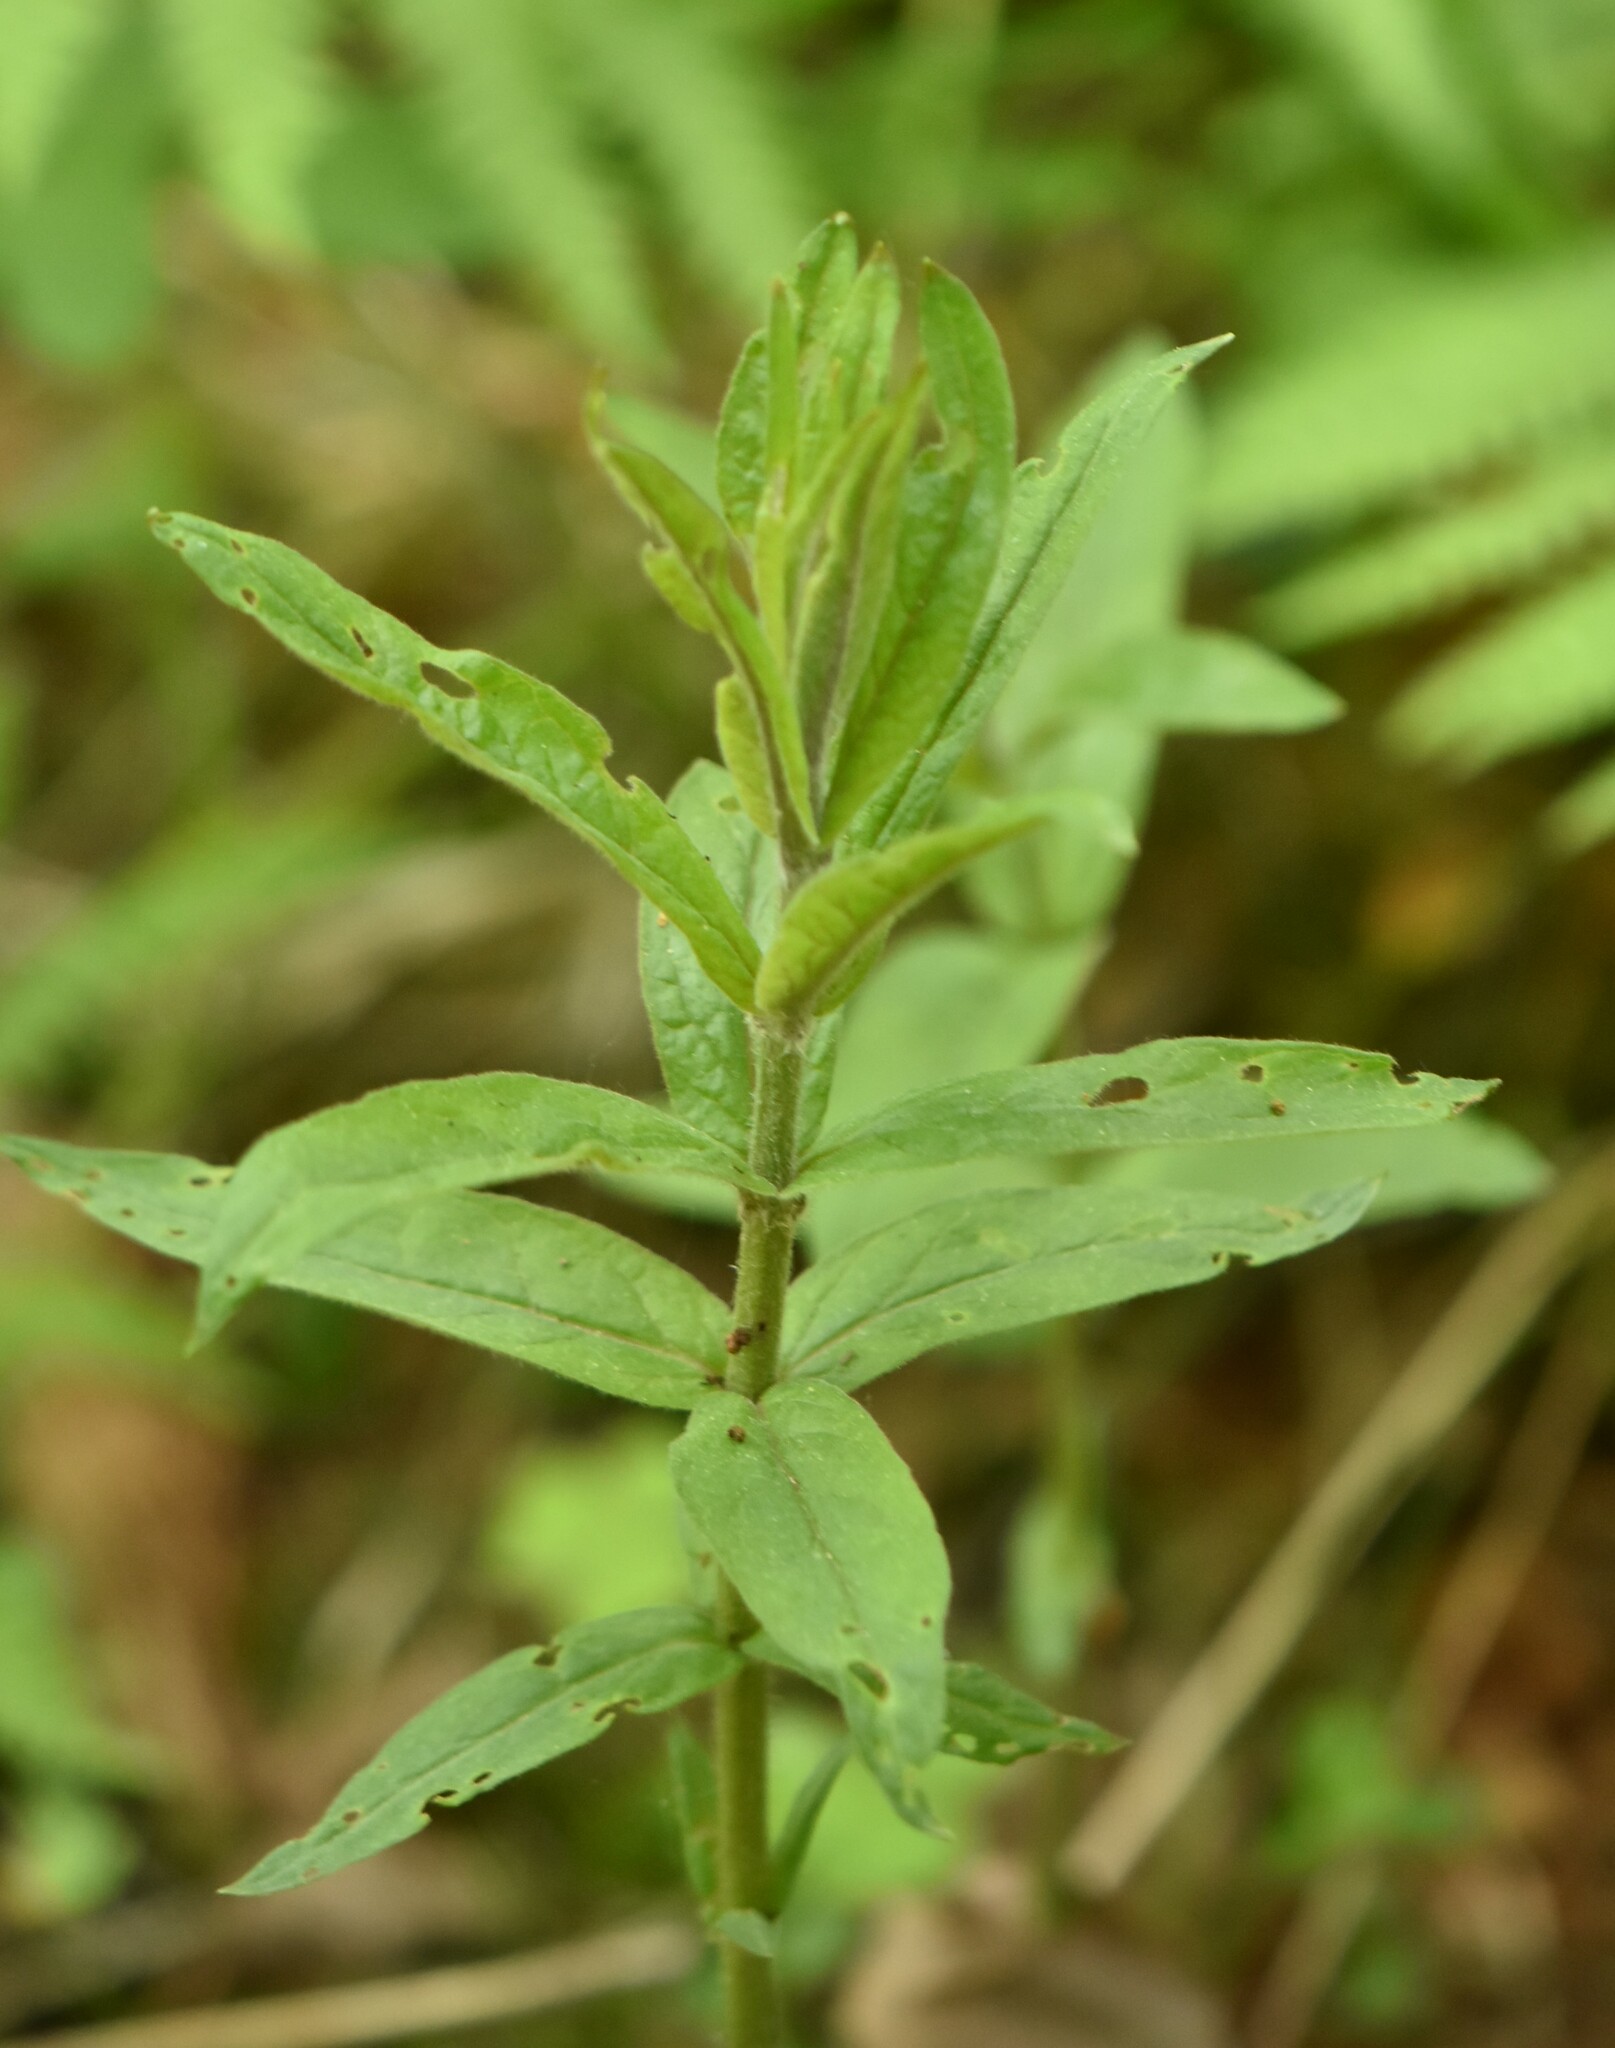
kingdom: Plantae
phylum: Tracheophyta
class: Magnoliopsida
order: Ericales
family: Primulaceae
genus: Lysimachia
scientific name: Lysimachia vulgaris
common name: Yellow loosestrife
